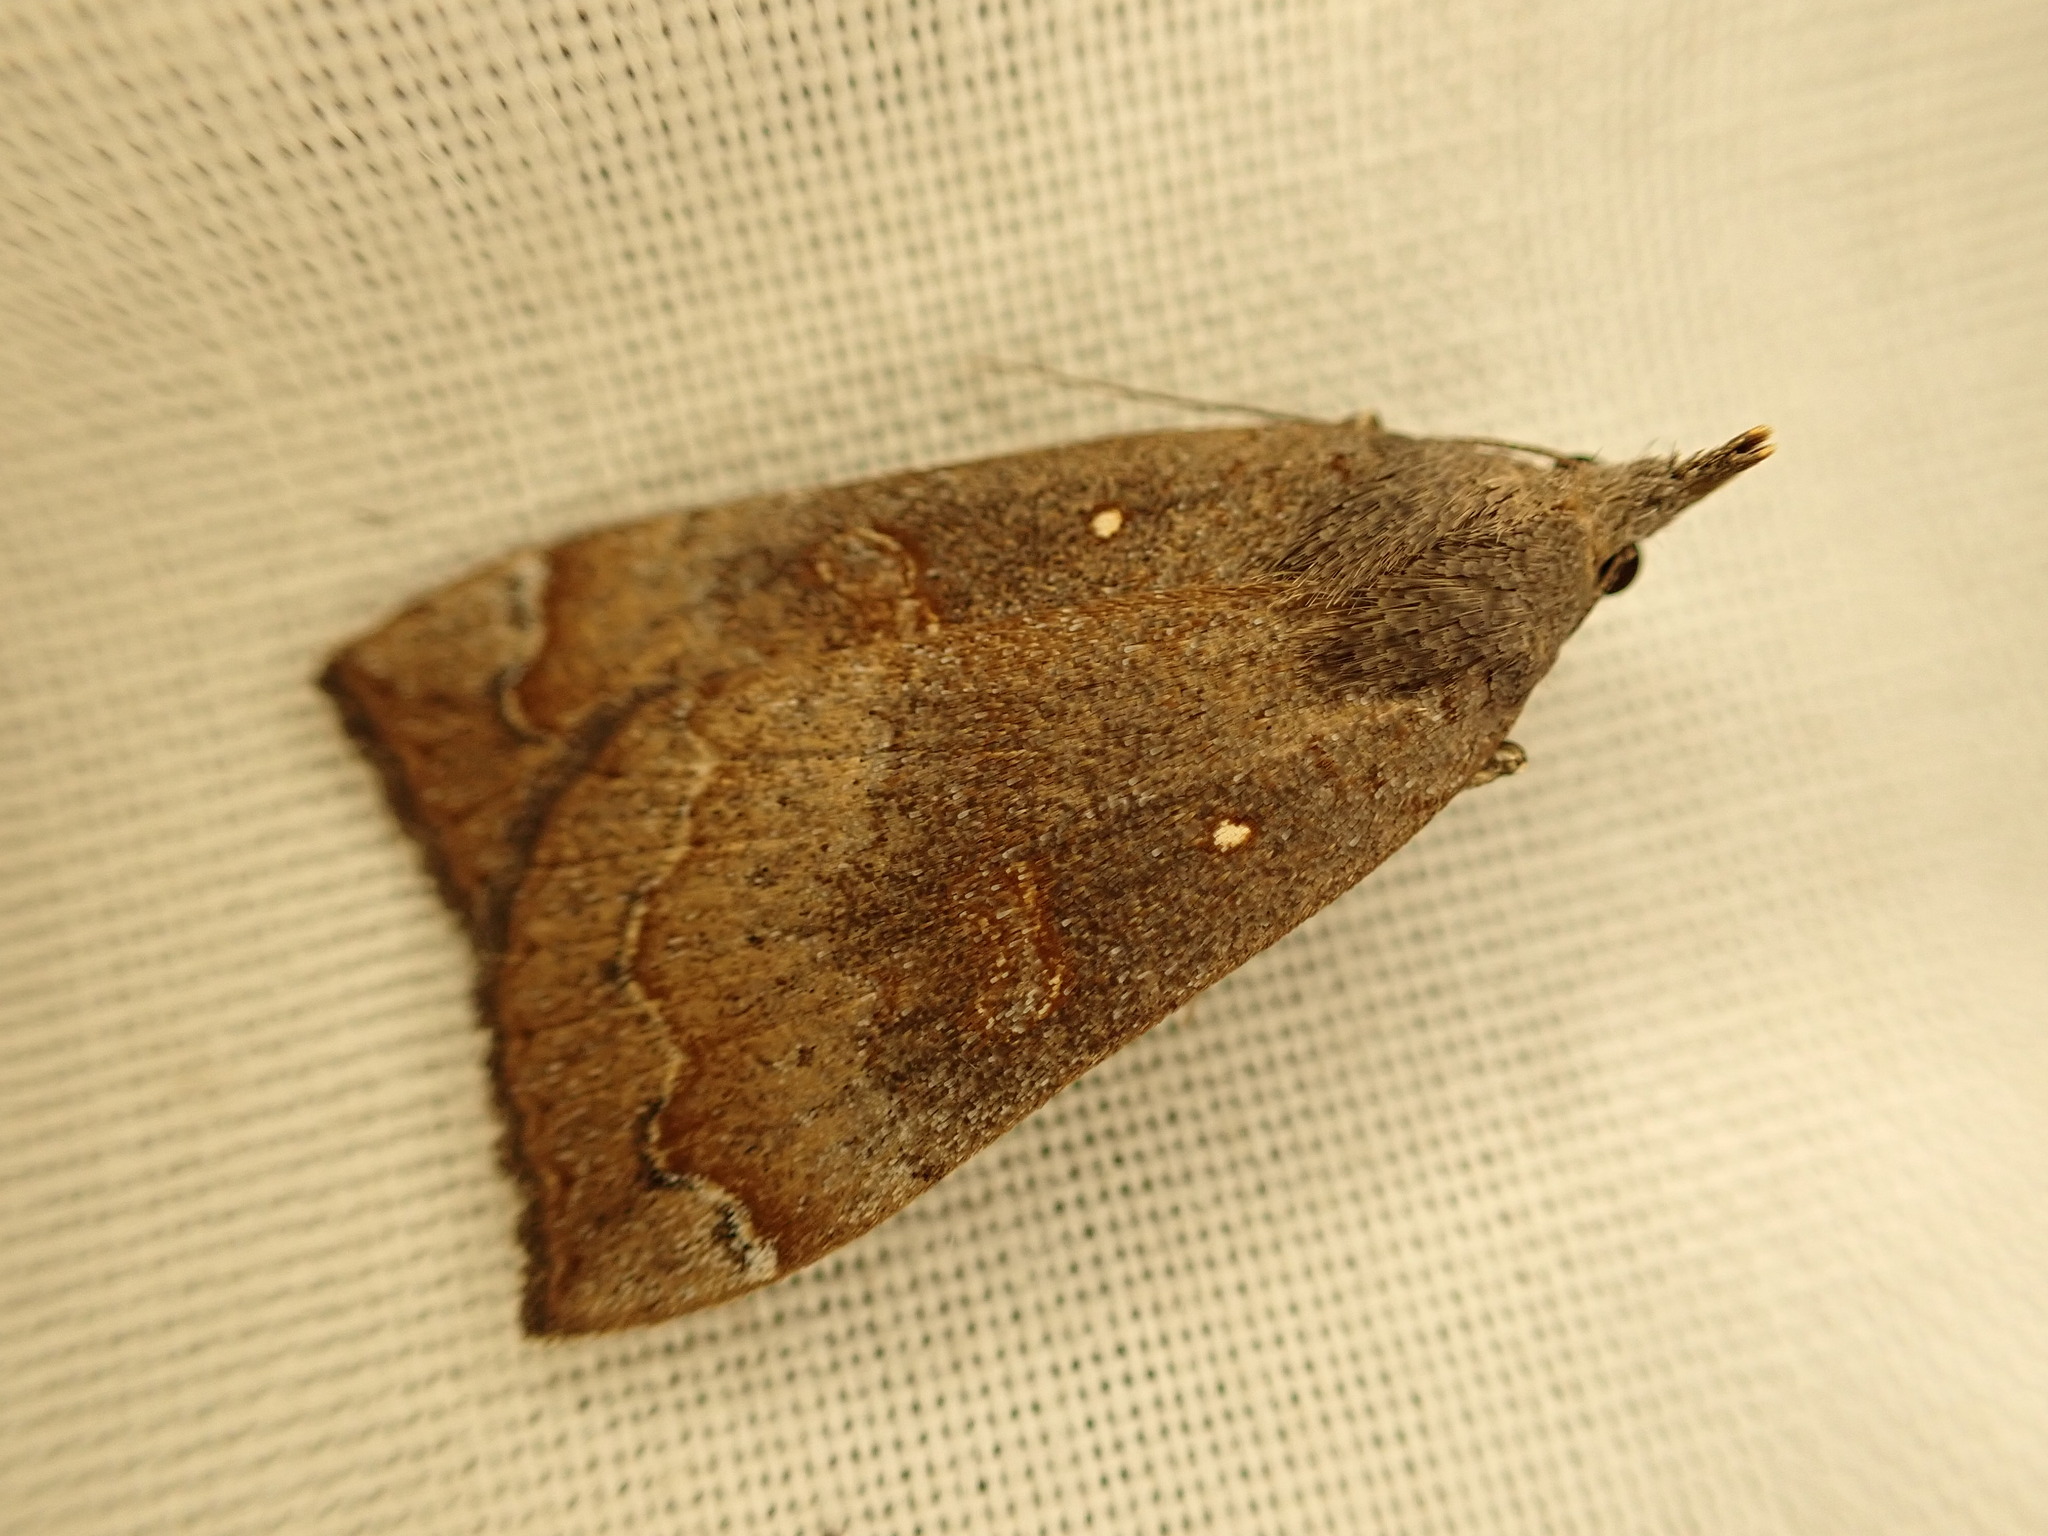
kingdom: Animalia
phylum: Arthropoda
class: Insecta
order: Lepidoptera
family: Erebidae
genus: Rhapsa
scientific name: Rhapsa scotosialis
